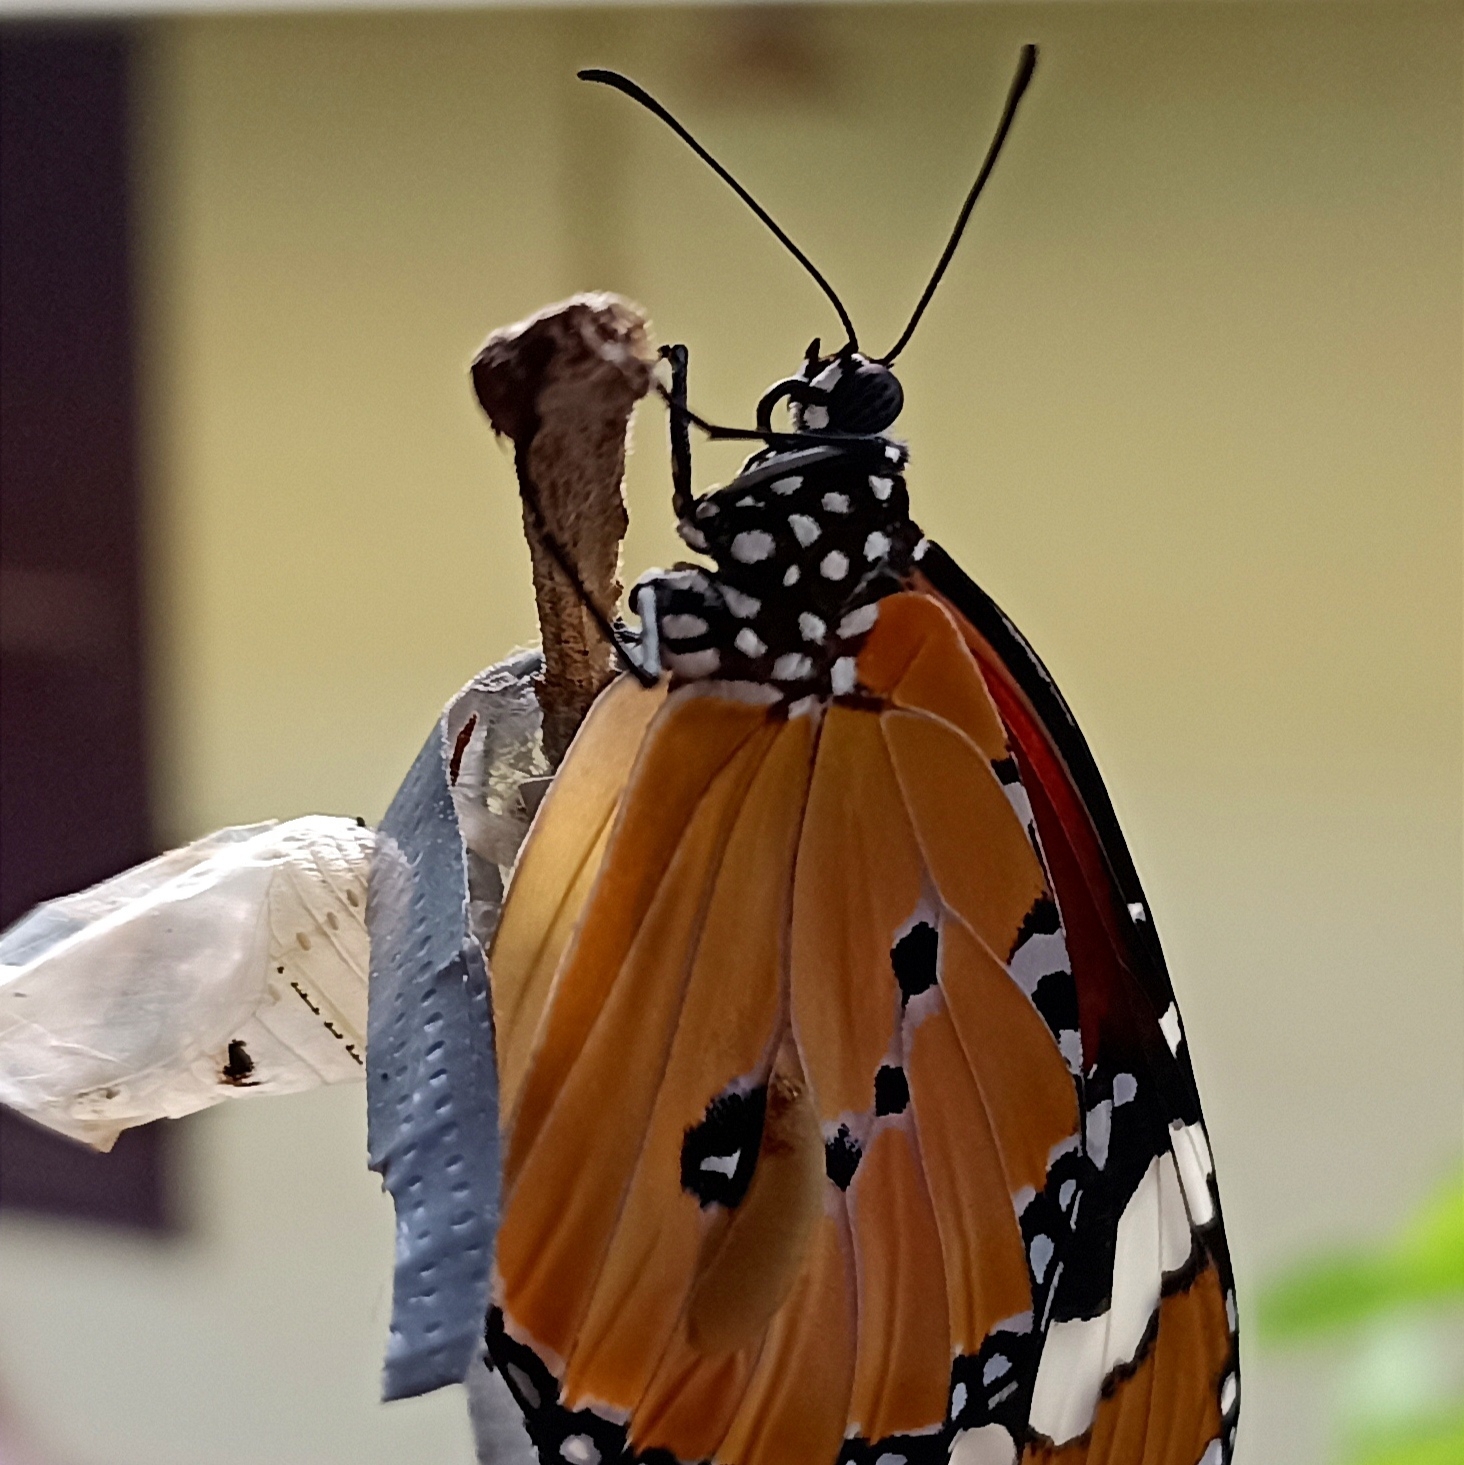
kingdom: Animalia
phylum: Arthropoda
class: Insecta
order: Lepidoptera
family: Nymphalidae
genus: Danaus
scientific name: Danaus chrysippus
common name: Plain tiger
